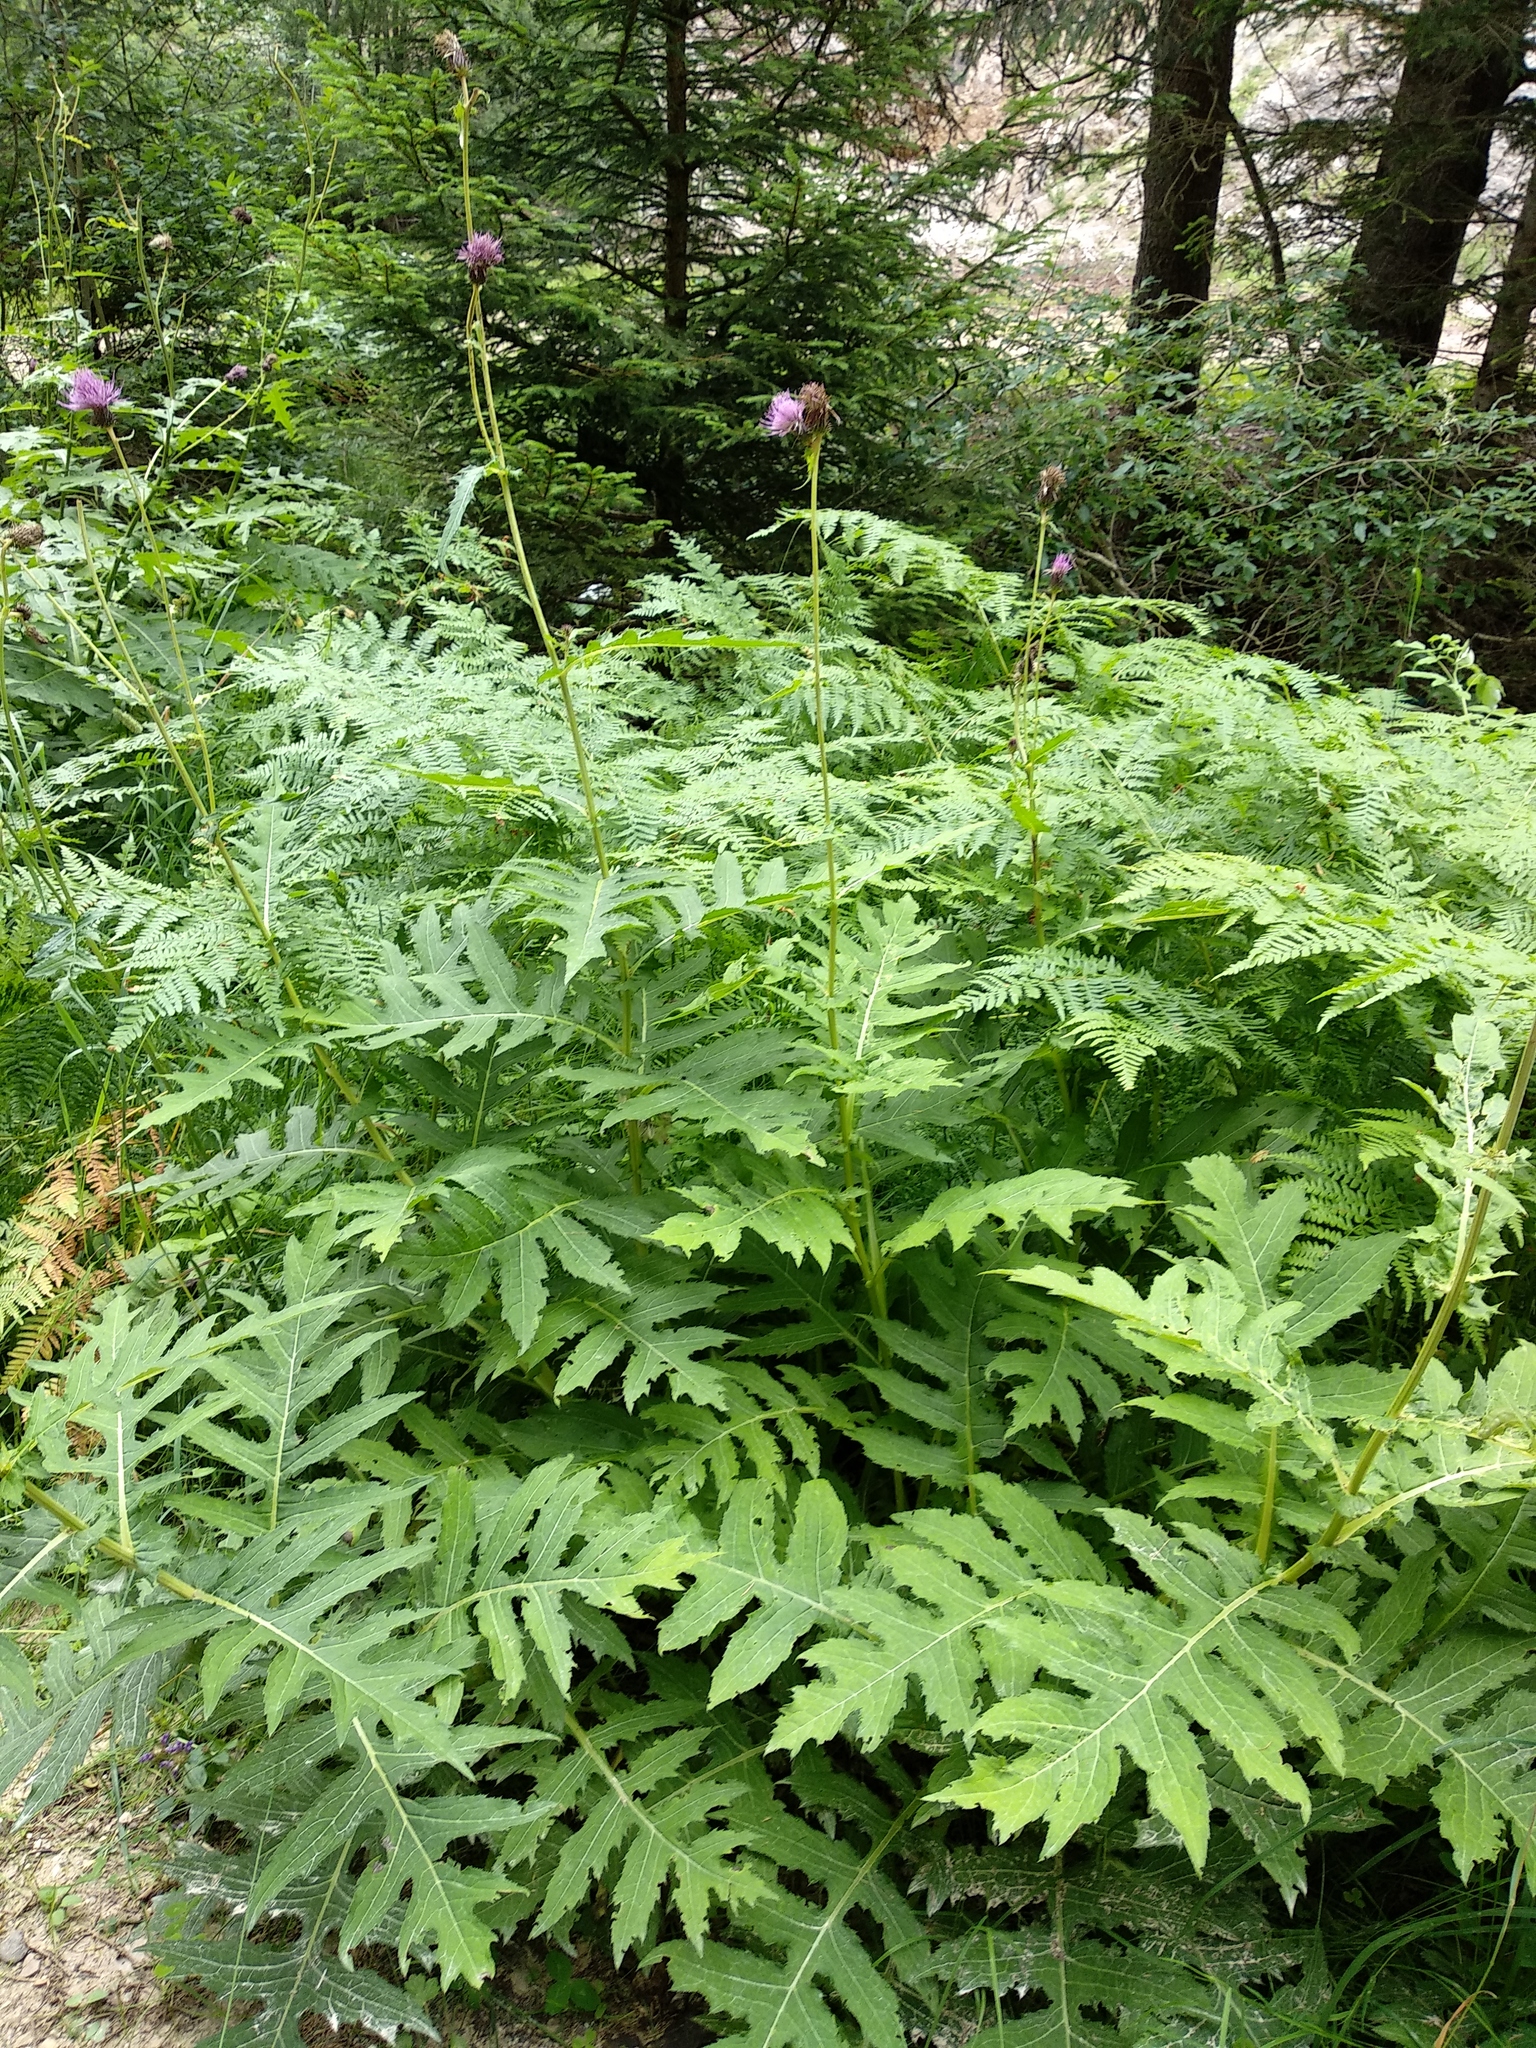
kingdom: Plantae
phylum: Tracheophyta
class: Magnoliopsida
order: Asterales
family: Asteraceae
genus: Cirsium
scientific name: Cirsium alsophilum
